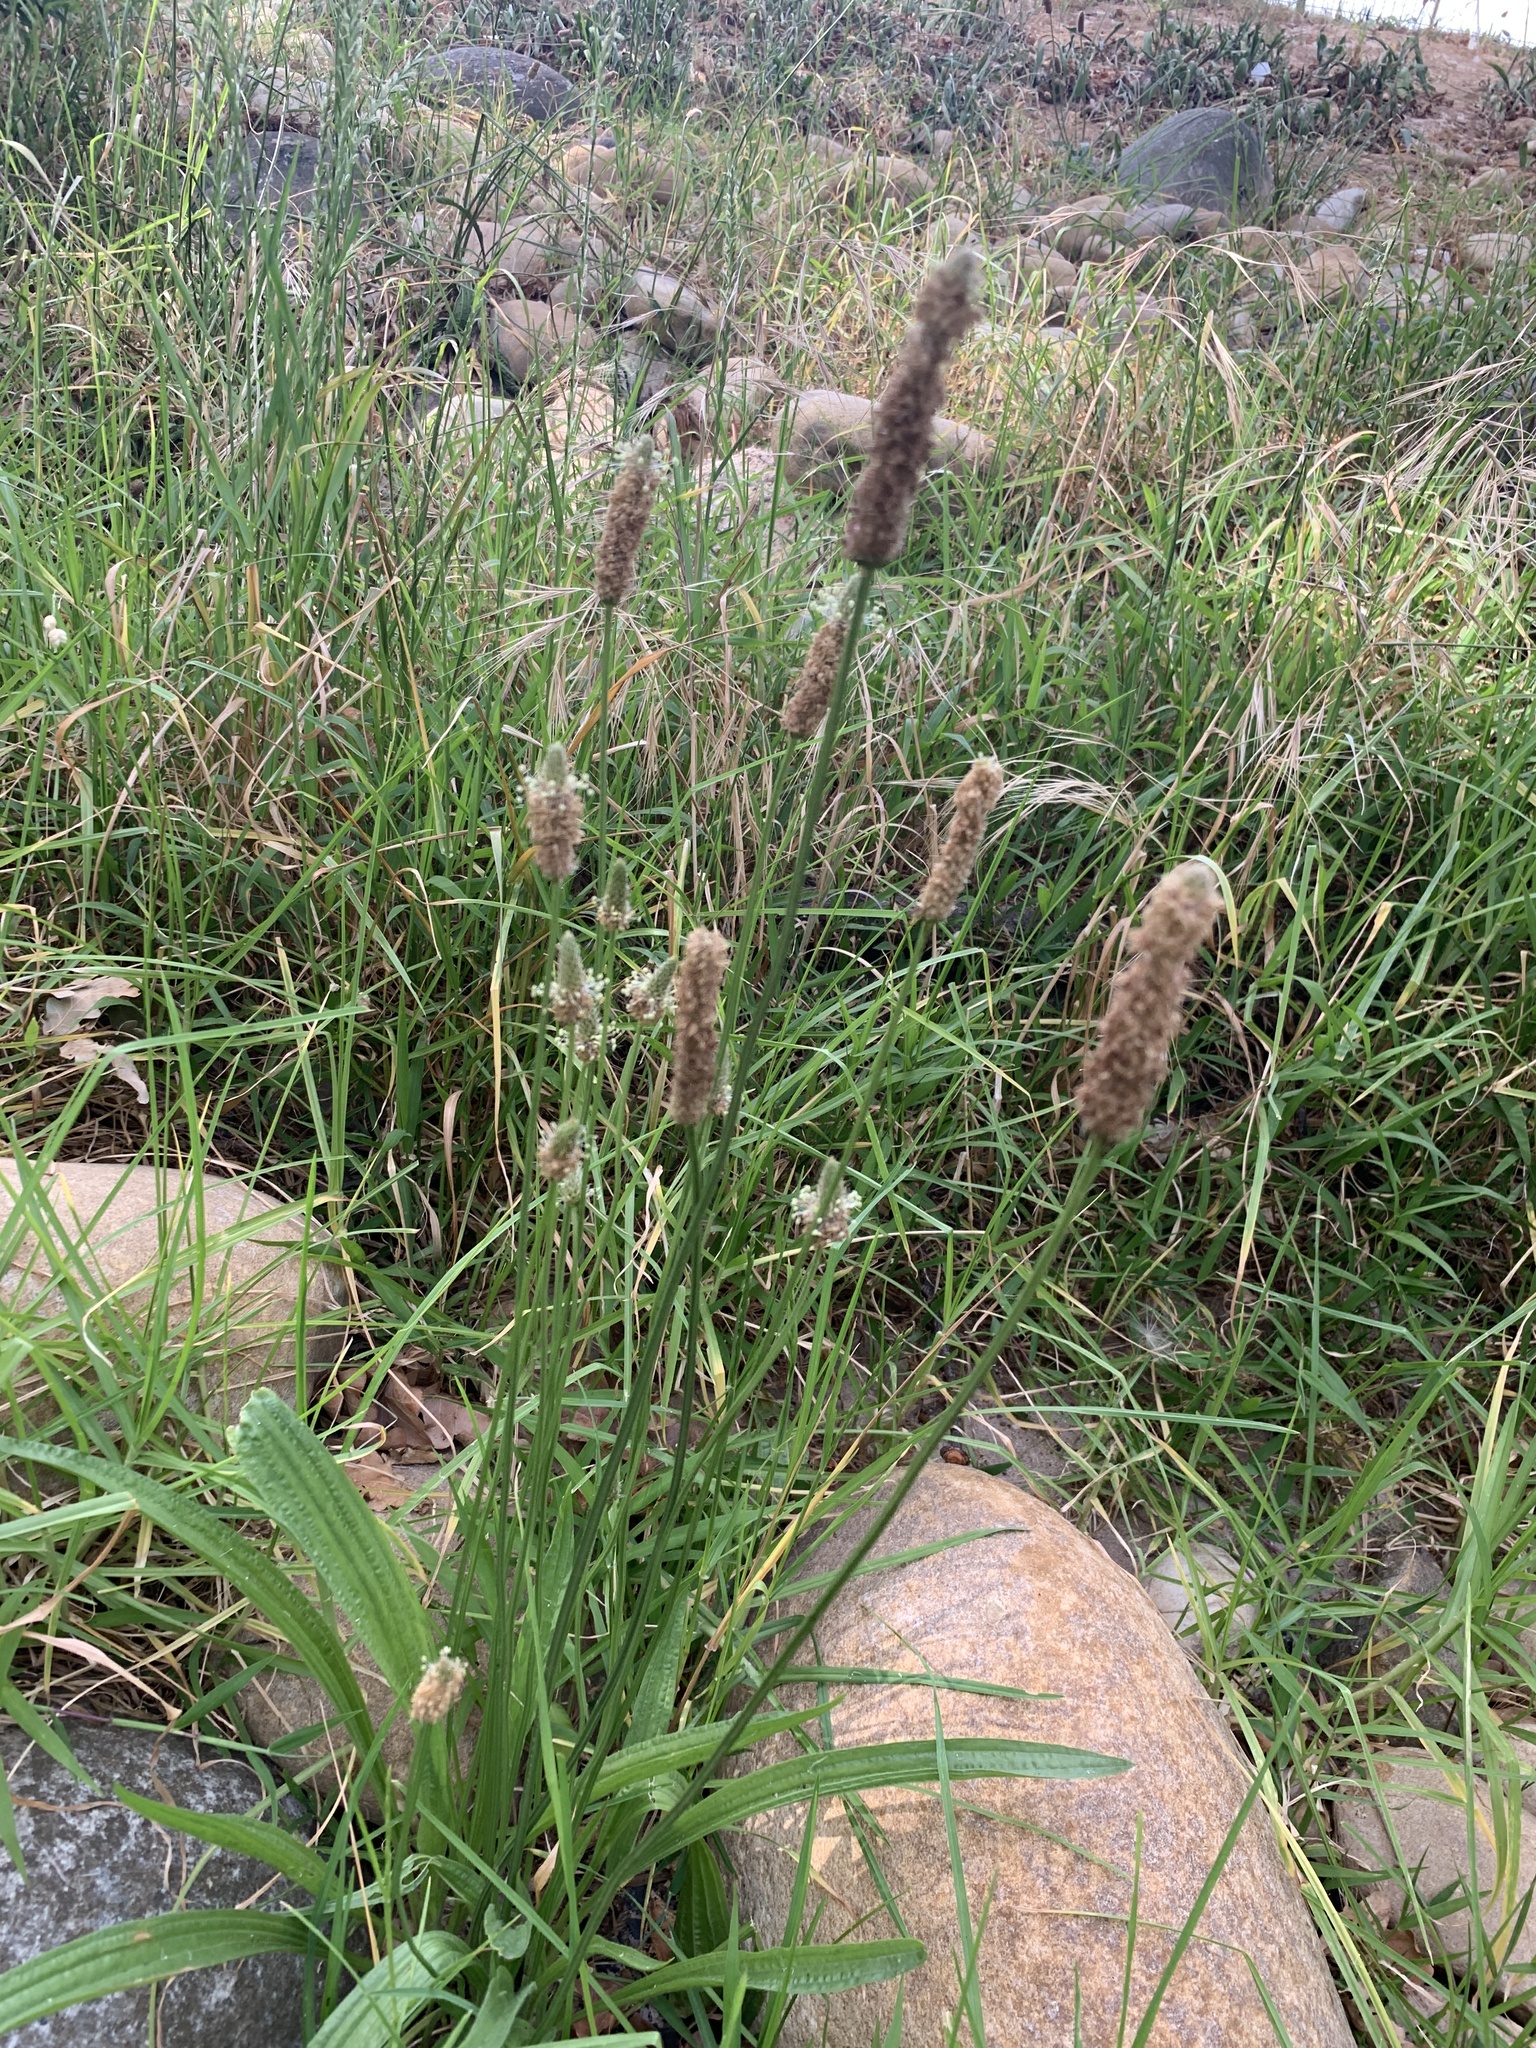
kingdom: Plantae
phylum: Tracheophyta
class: Magnoliopsida
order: Lamiales
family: Plantaginaceae
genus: Plantago
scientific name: Plantago lanceolata
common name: Ribwort plantain
